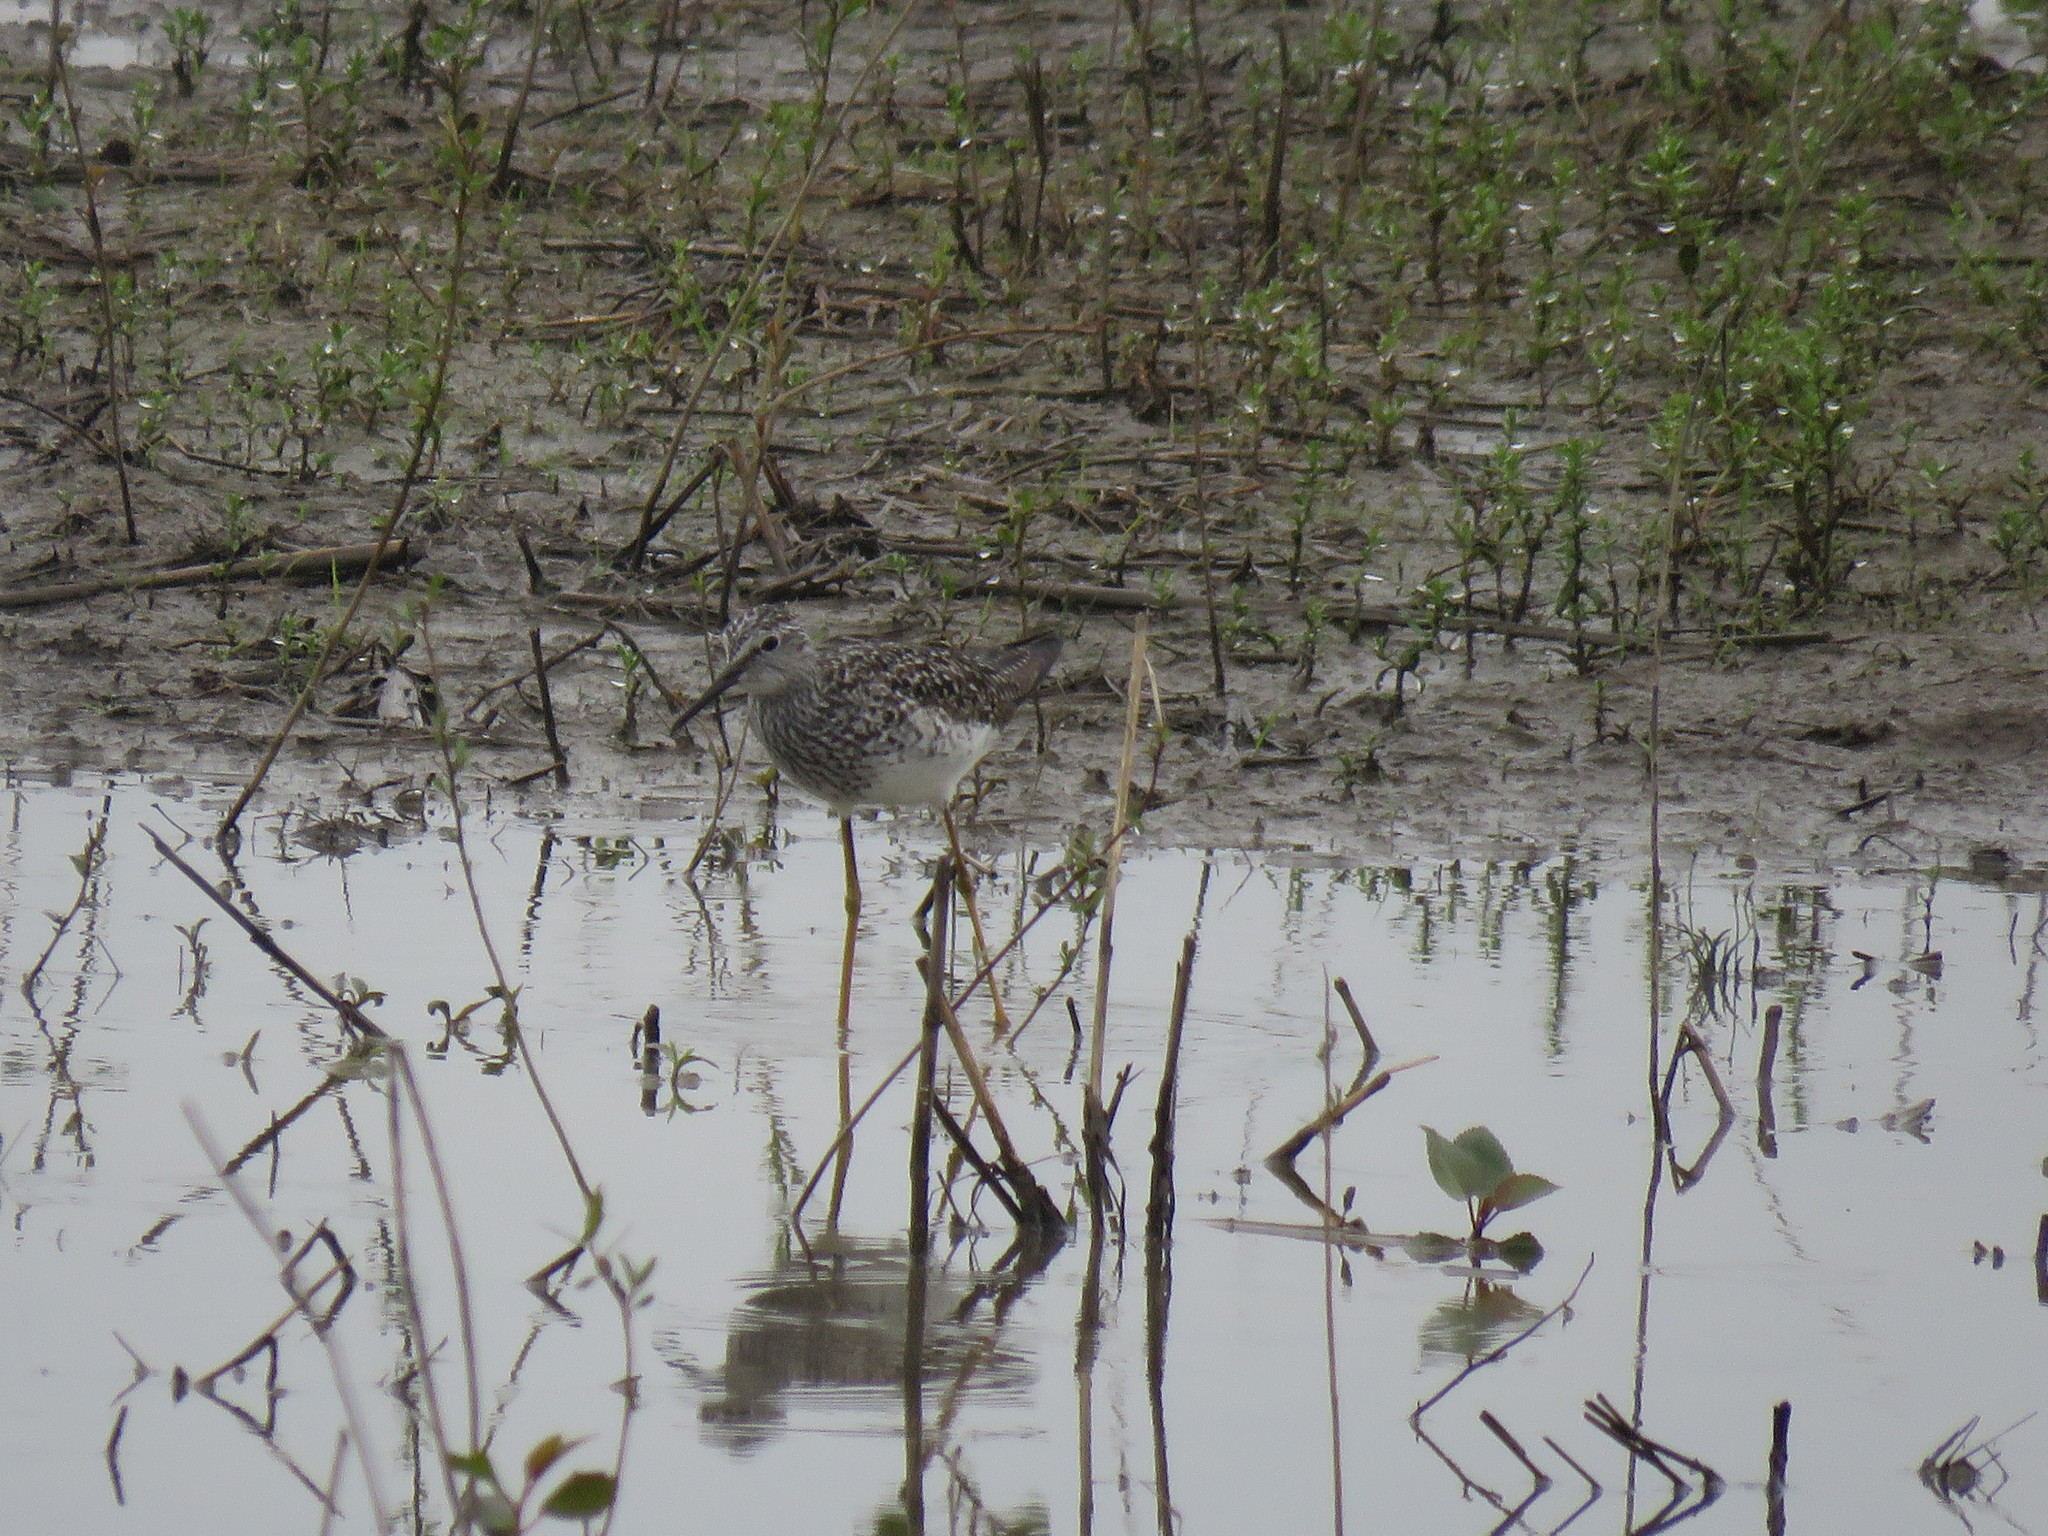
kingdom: Animalia
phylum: Chordata
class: Aves
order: Charadriiformes
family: Scolopacidae
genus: Tringa
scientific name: Tringa flavipes
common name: Lesser yellowlegs
